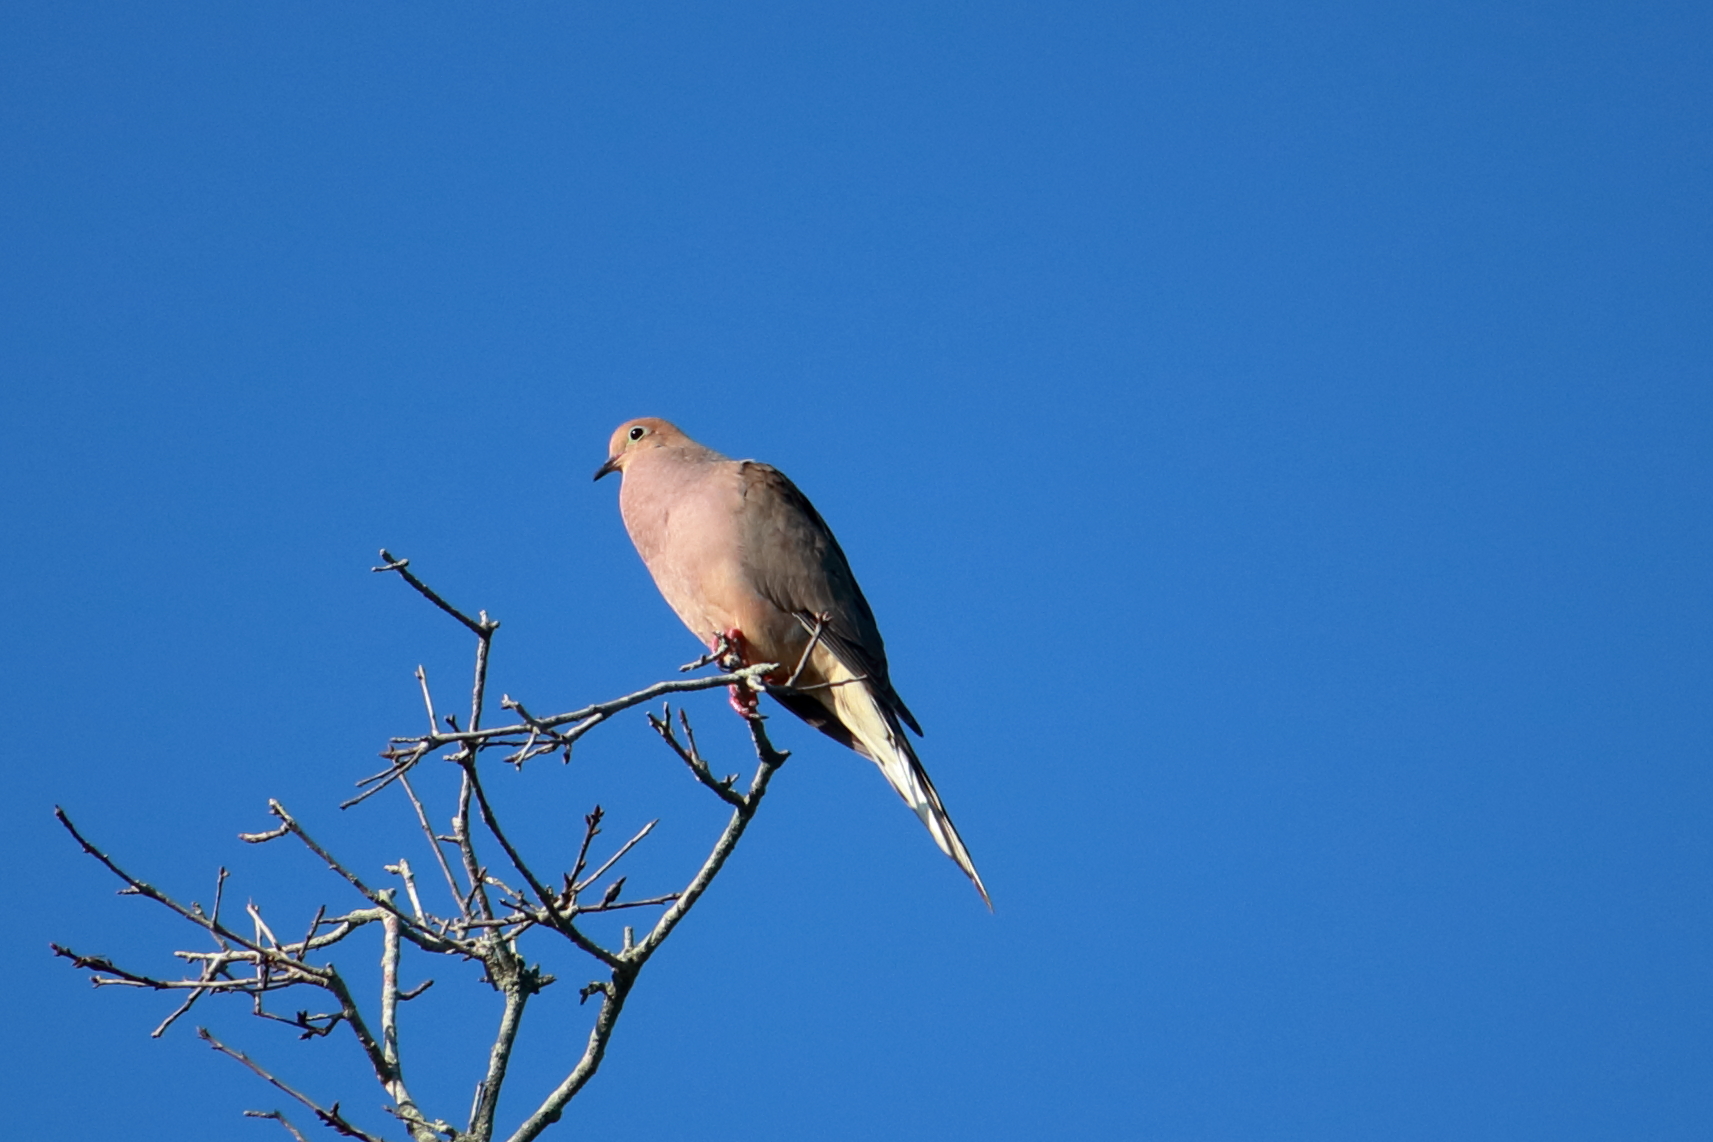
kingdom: Animalia
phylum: Chordata
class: Aves
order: Columbiformes
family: Columbidae
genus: Zenaida
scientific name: Zenaida macroura
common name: Mourning dove
